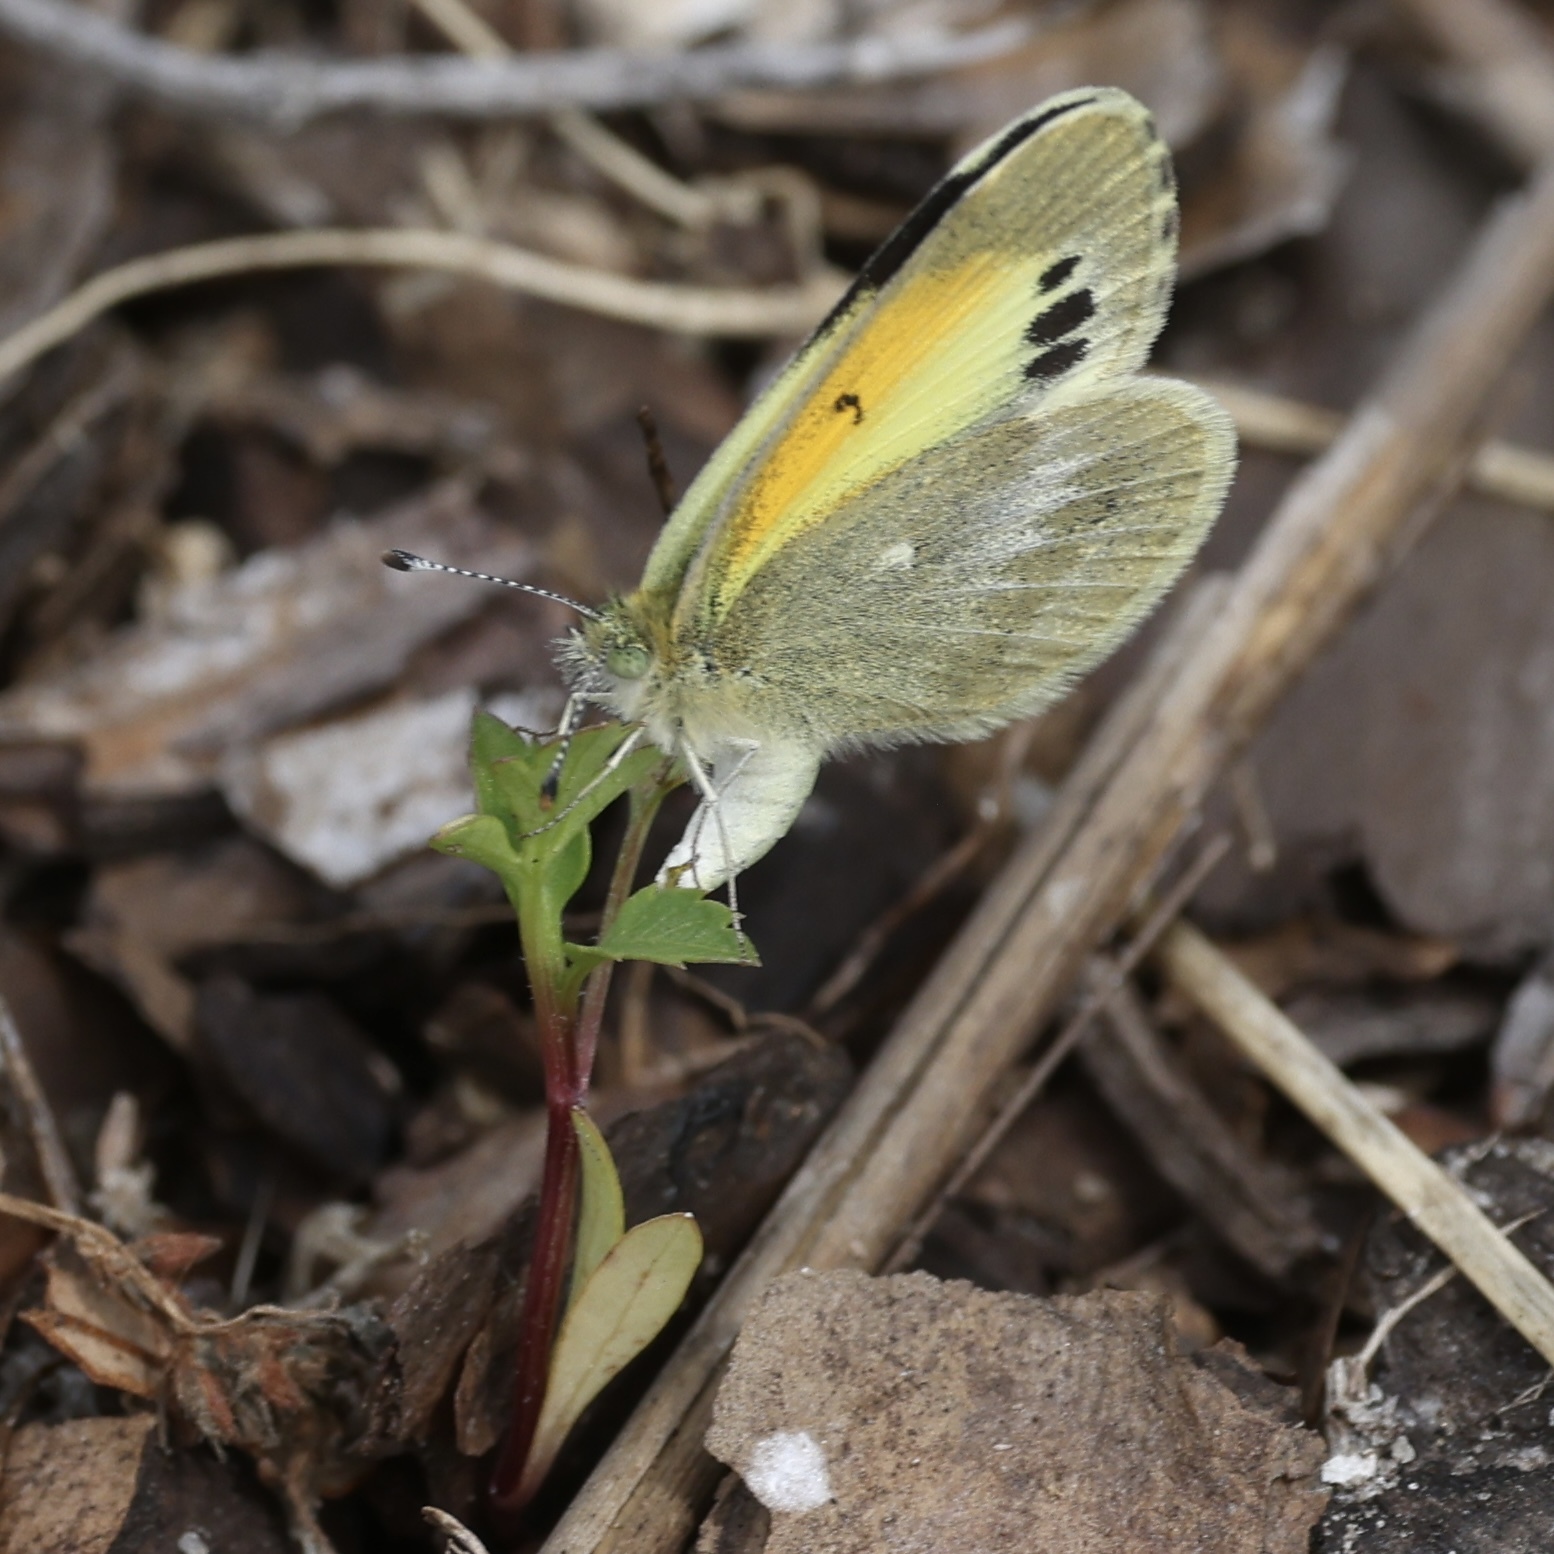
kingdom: Animalia
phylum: Arthropoda
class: Insecta
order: Lepidoptera
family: Pieridae
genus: Nathalis
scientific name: Nathalis iole
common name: Dainty sulphur
